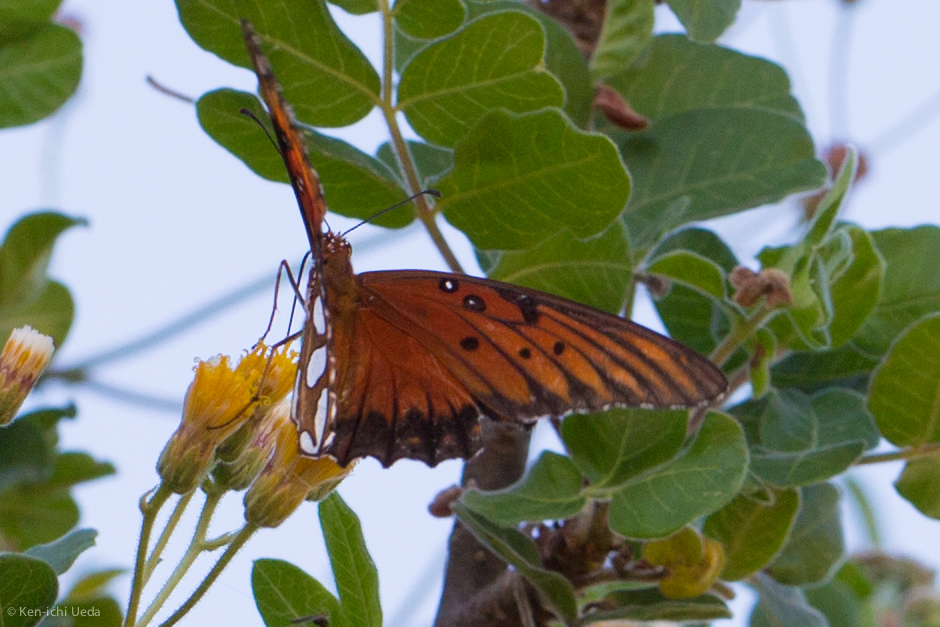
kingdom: Animalia
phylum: Arthropoda
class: Insecta
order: Lepidoptera
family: Nymphalidae
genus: Dione
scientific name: Dione vanillae
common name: Gulf fritillary
